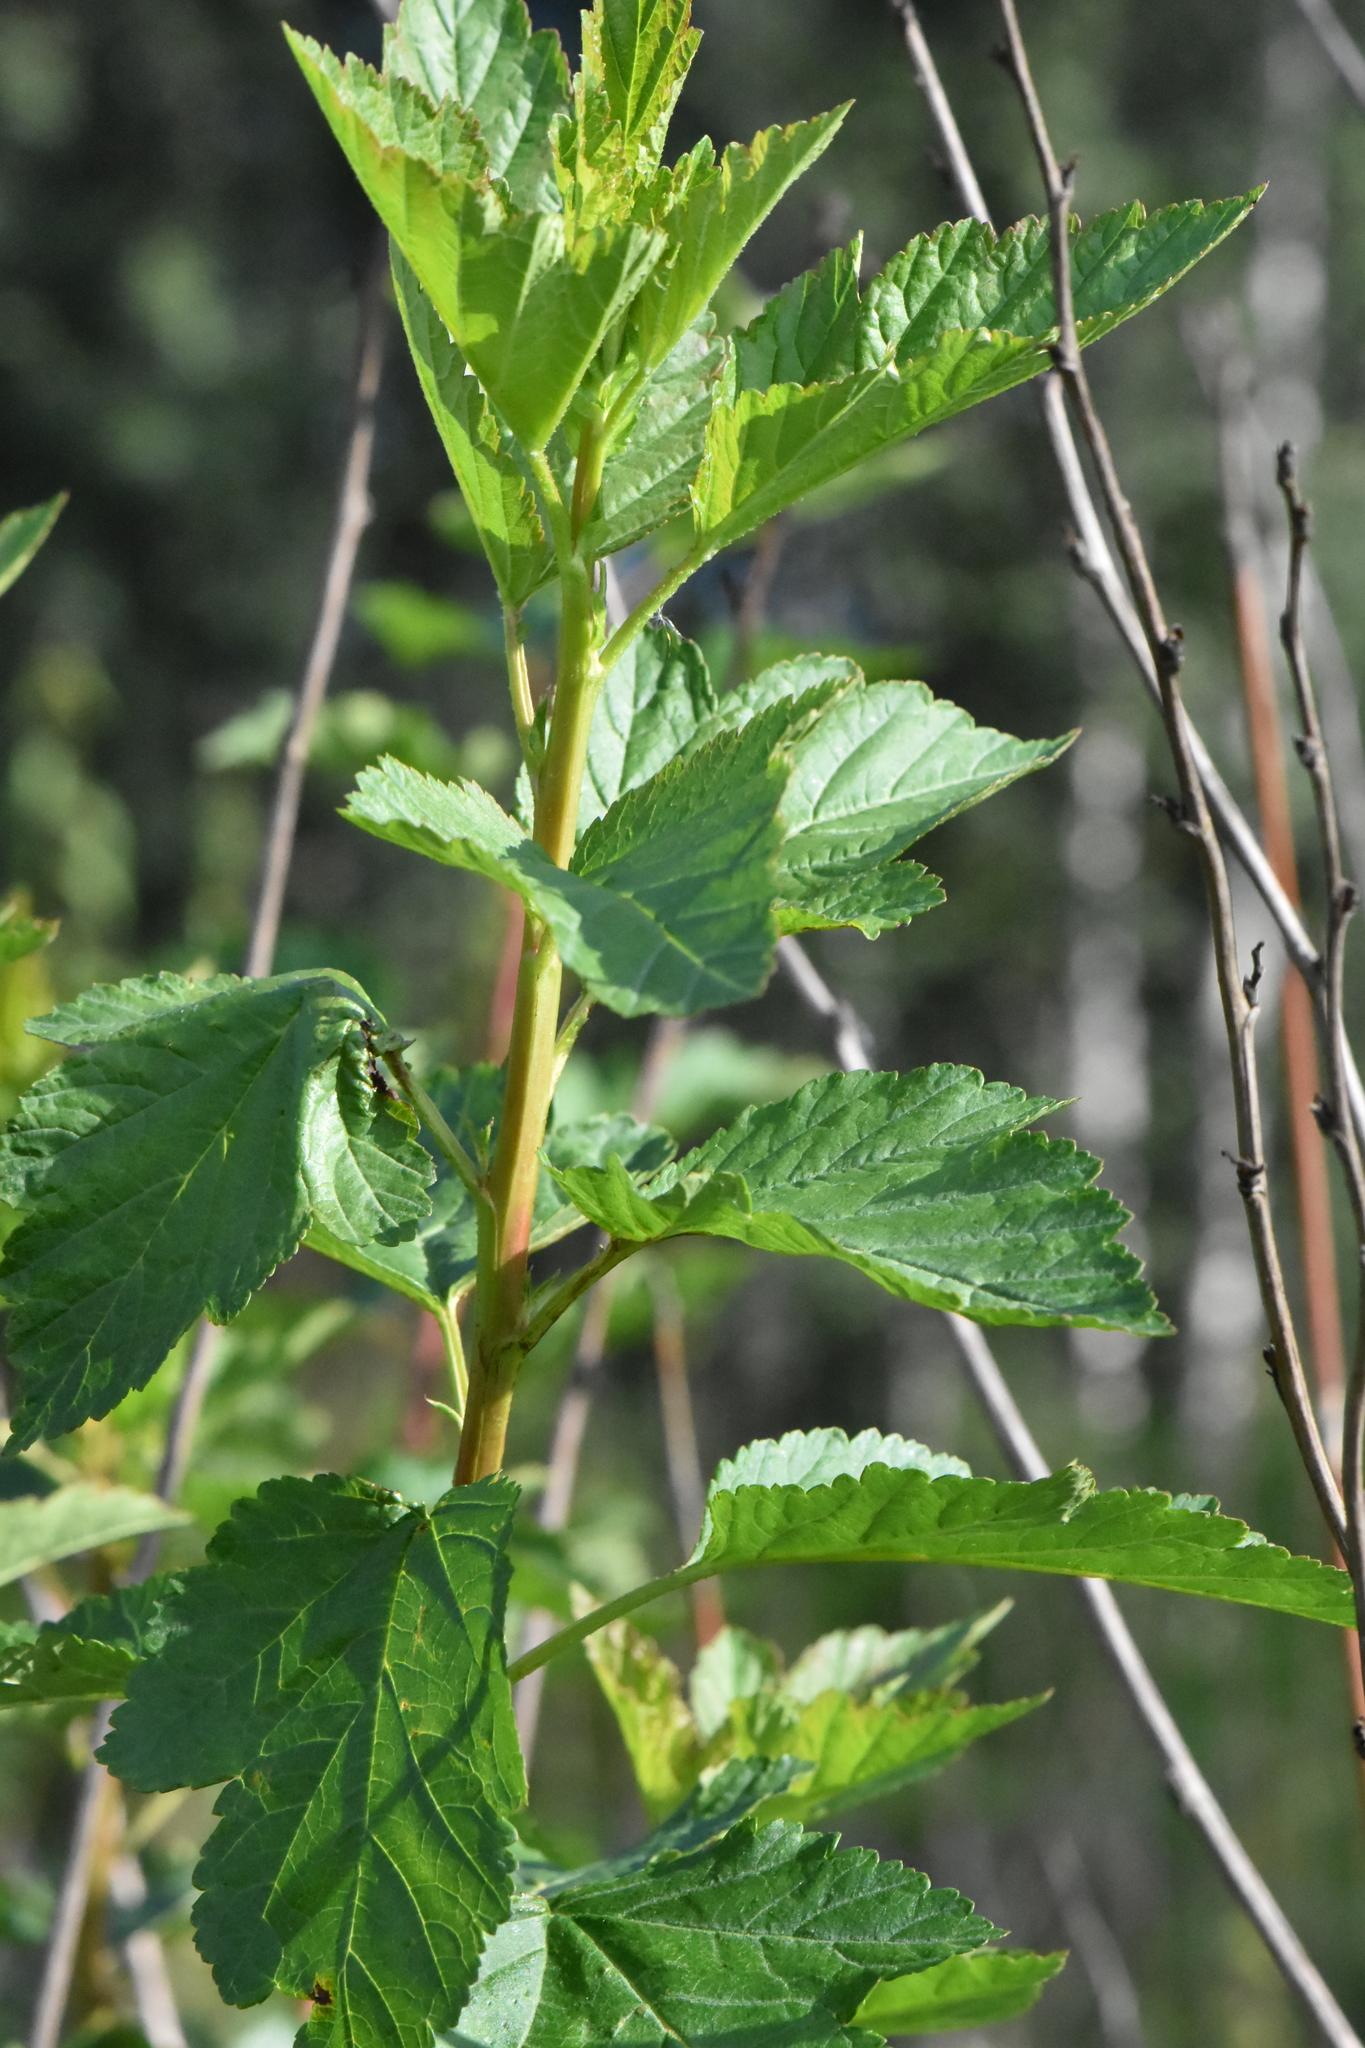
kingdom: Plantae
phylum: Tracheophyta
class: Magnoliopsida
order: Rosales
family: Rosaceae
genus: Physocarpus
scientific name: Physocarpus opulifolius
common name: Ninebark
